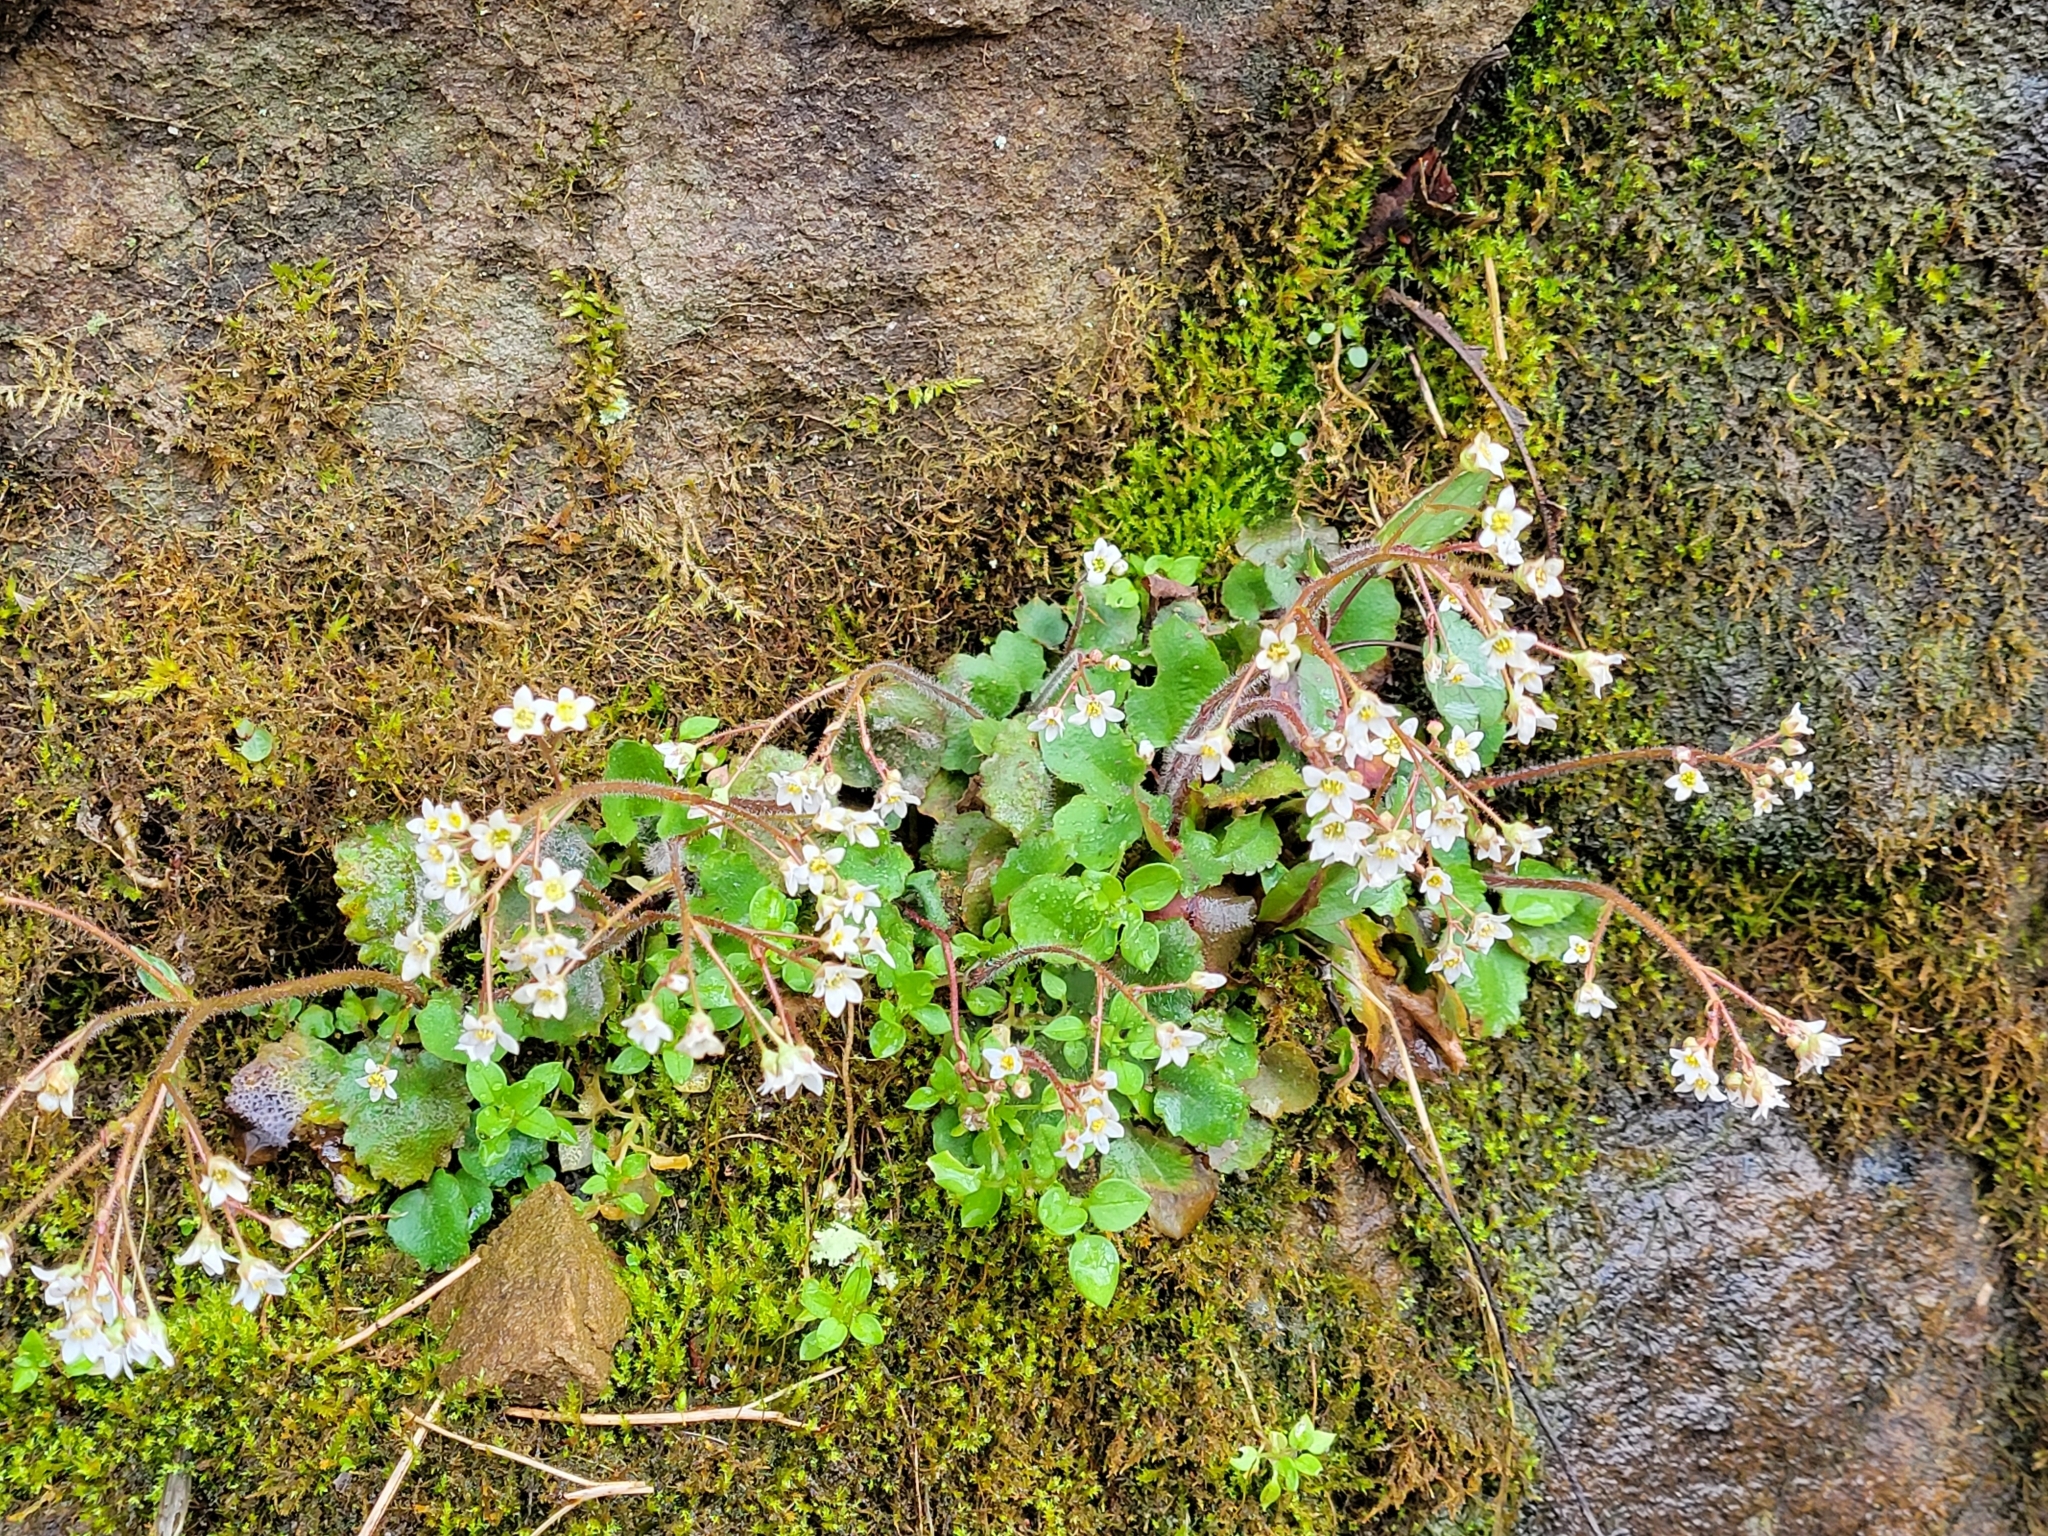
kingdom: Plantae
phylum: Tracheophyta
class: Magnoliopsida
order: Saxifragales
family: Saxifragaceae
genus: Micranthes
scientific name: Micranthes virginiensis
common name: Early saxifrage
